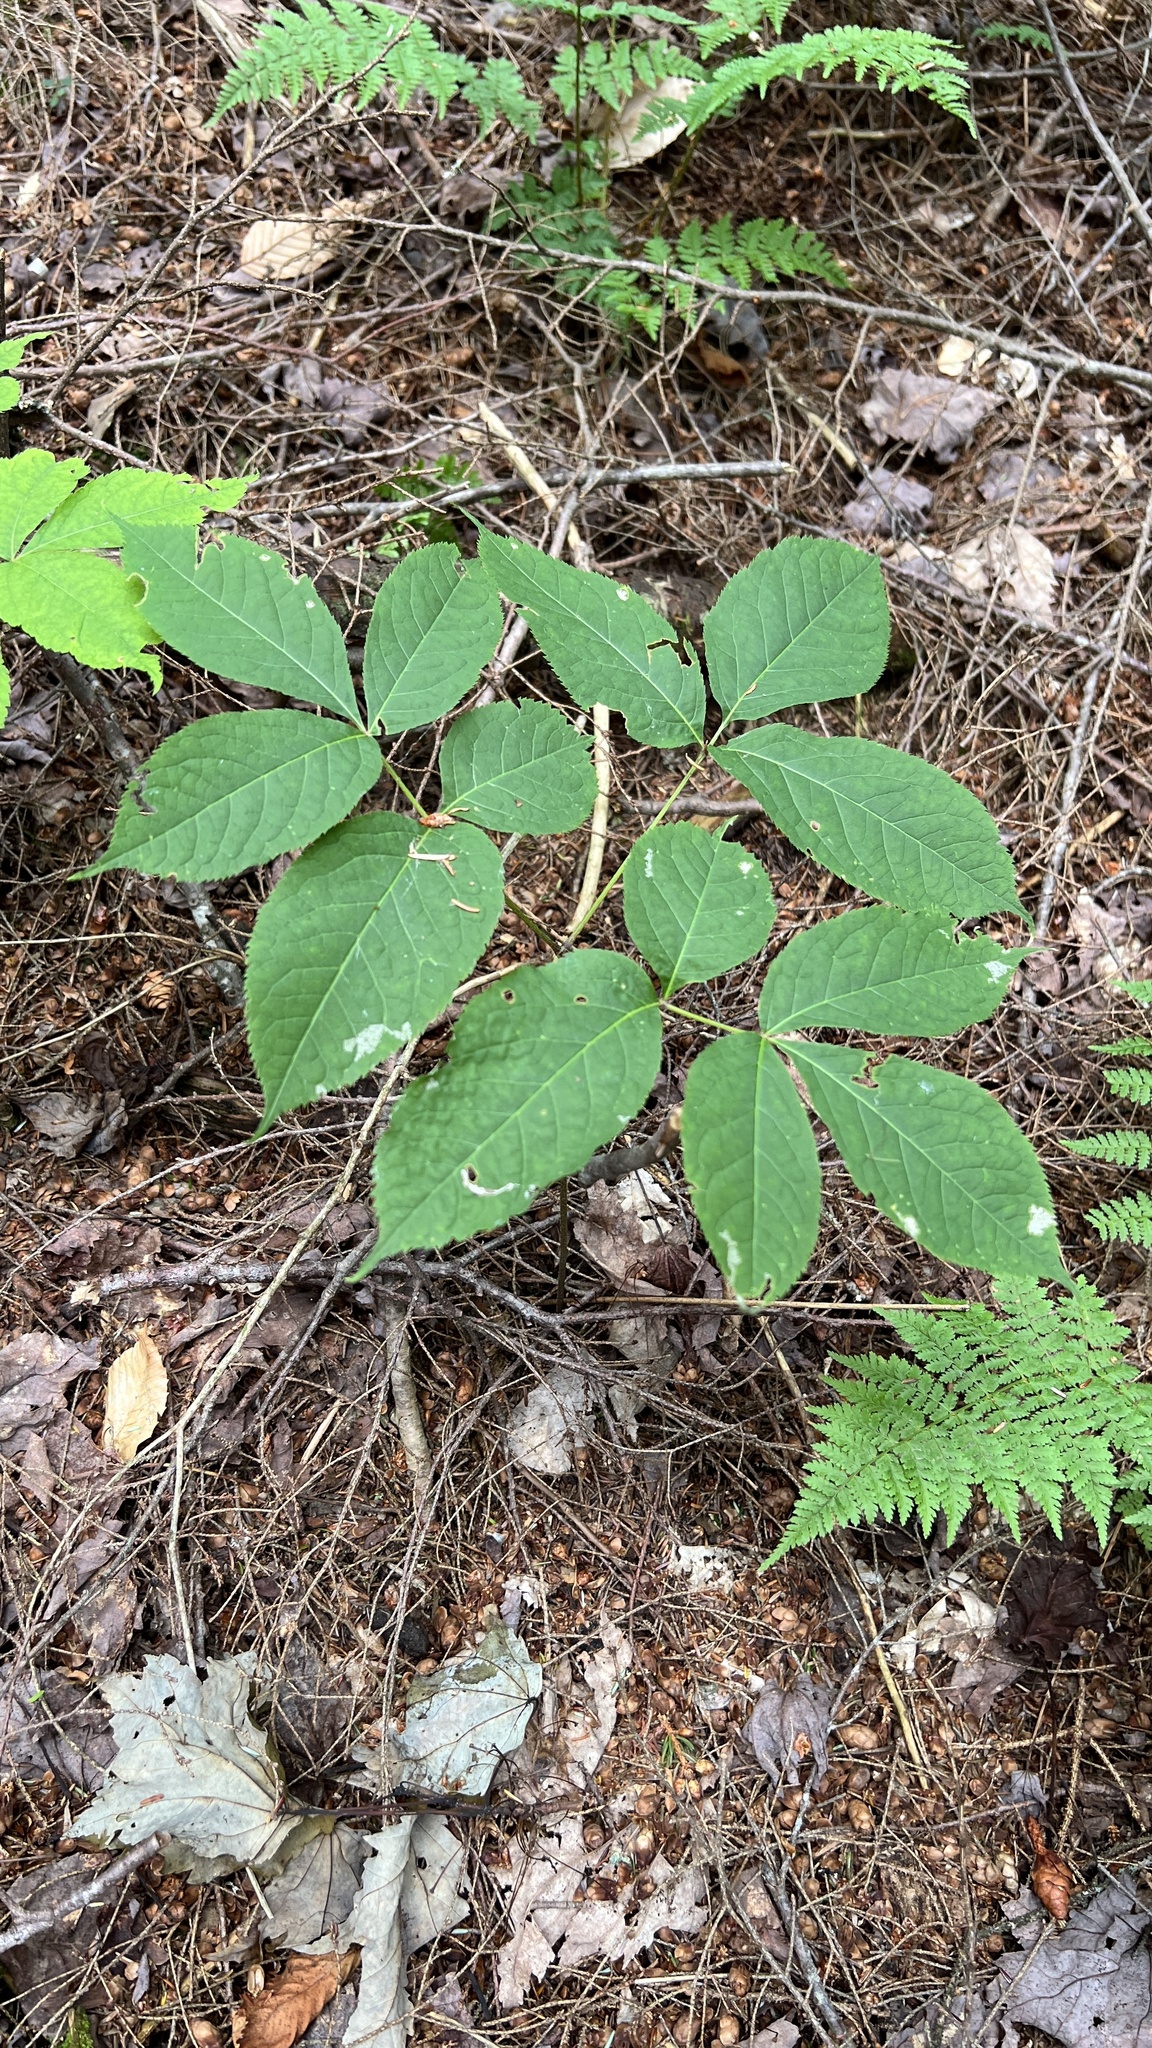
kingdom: Plantae
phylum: Tracheophyta
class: Magnoliopsida
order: Apiales
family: Araliaceae
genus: Aralia
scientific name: Aralia nudicaulis
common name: Wild sarsaparilla
